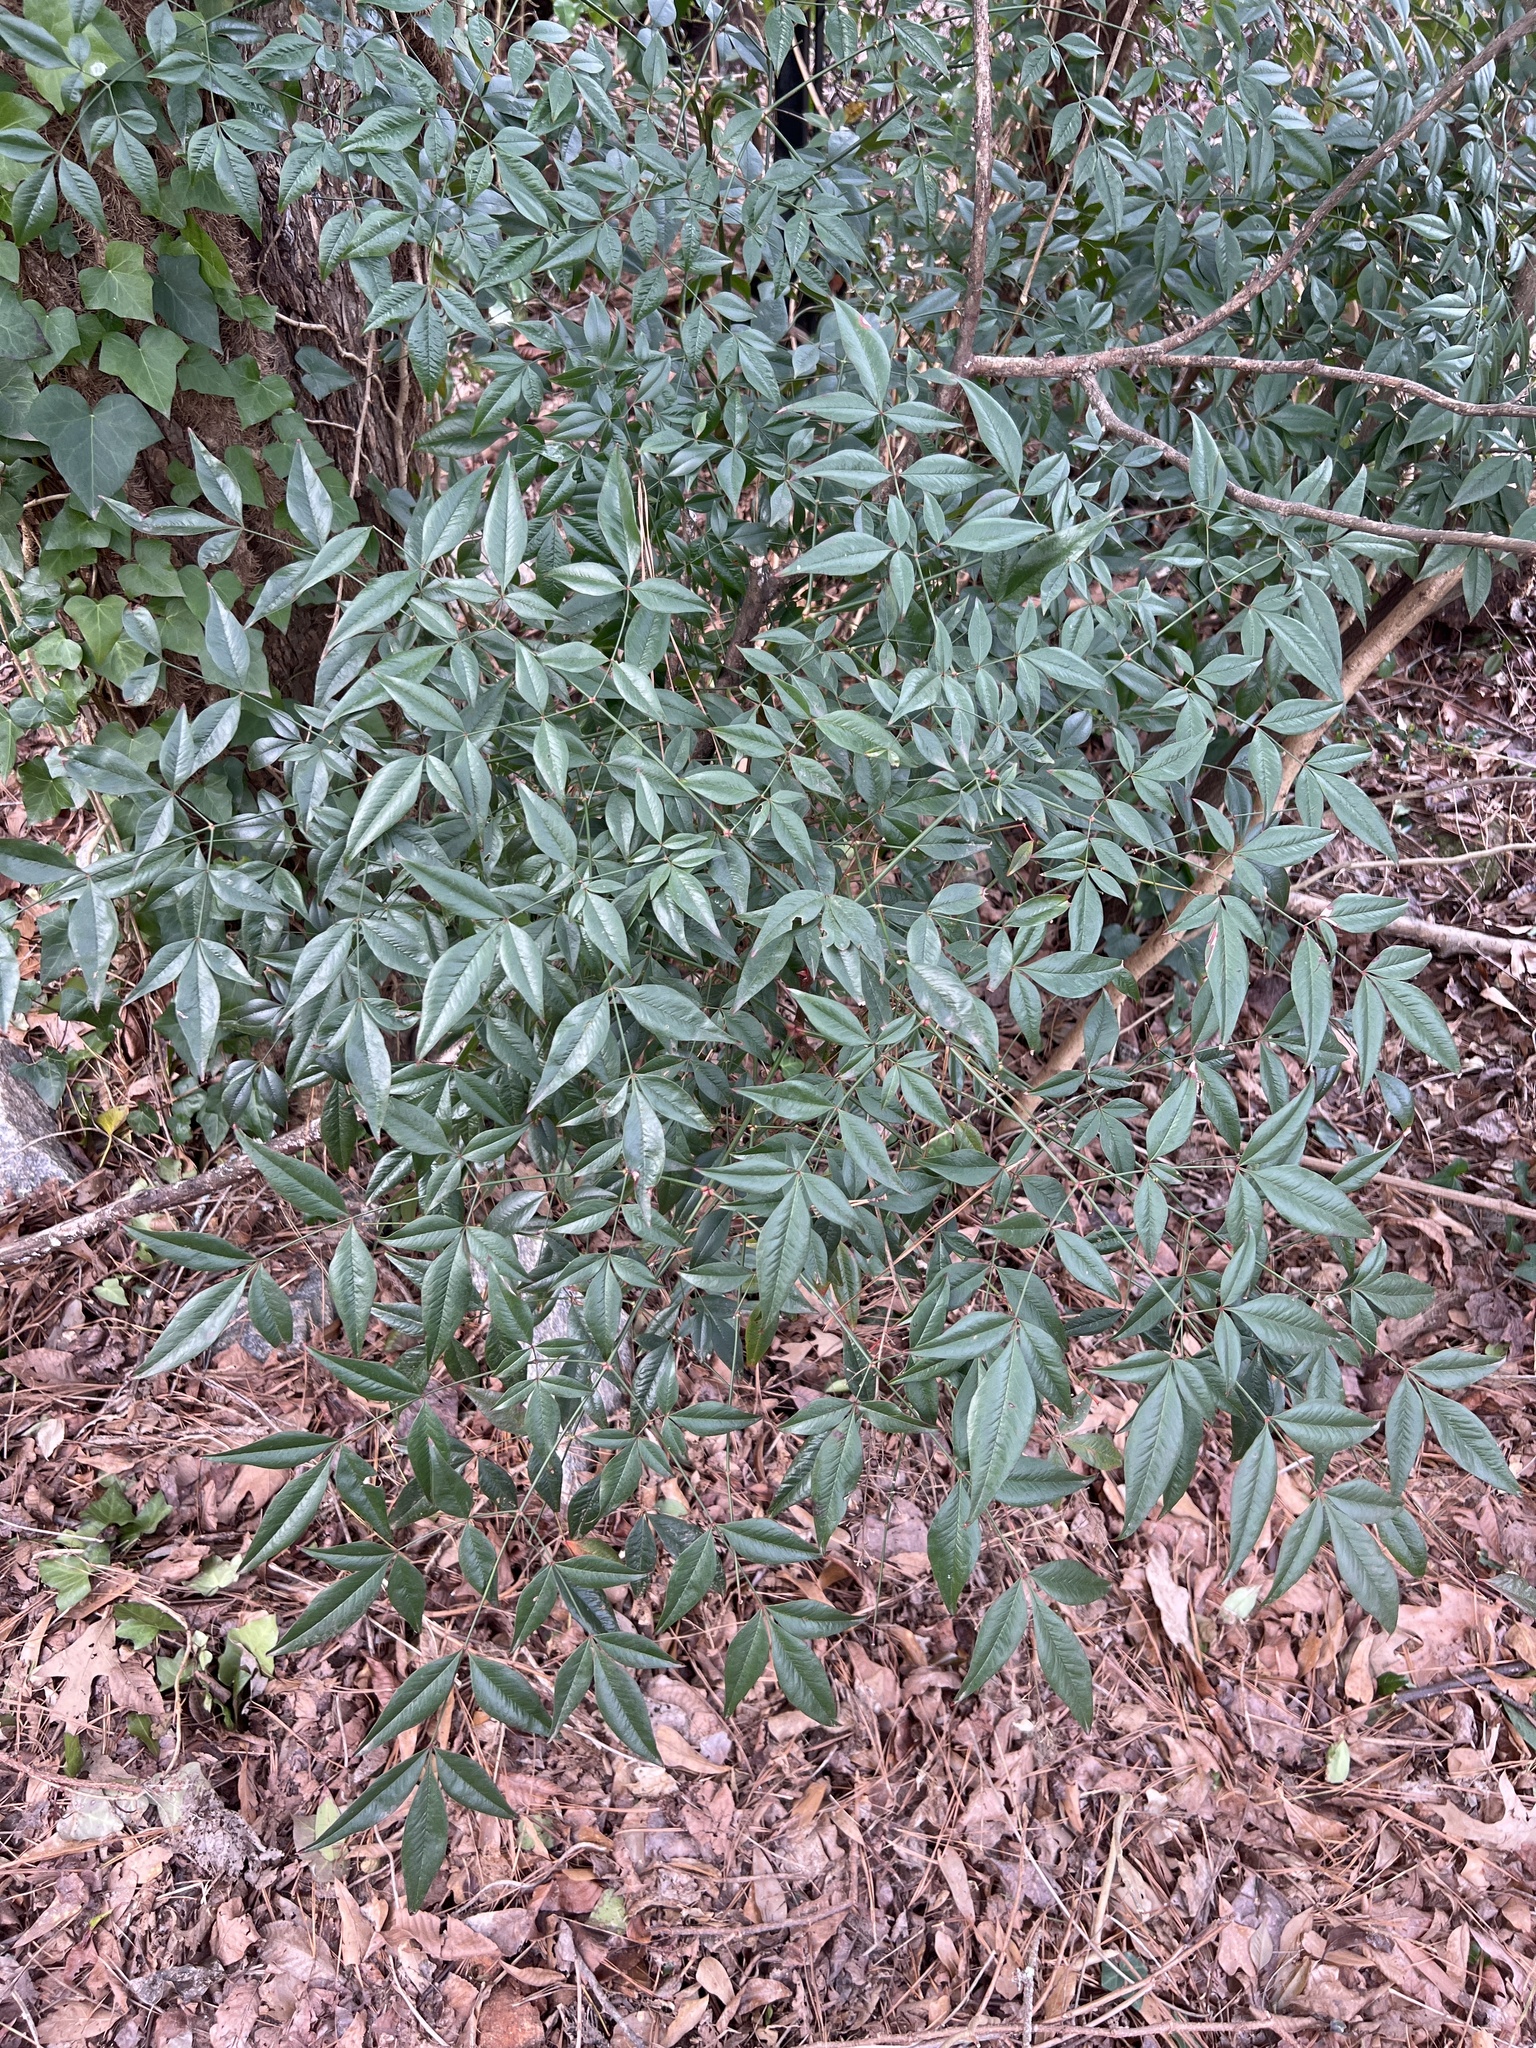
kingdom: Plantae
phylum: Tracheophyta
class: Magnoliopsida
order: Ranunculales
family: Berberidaceae
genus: Nandina
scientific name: Nandina domestica
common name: Sacred bamboo
